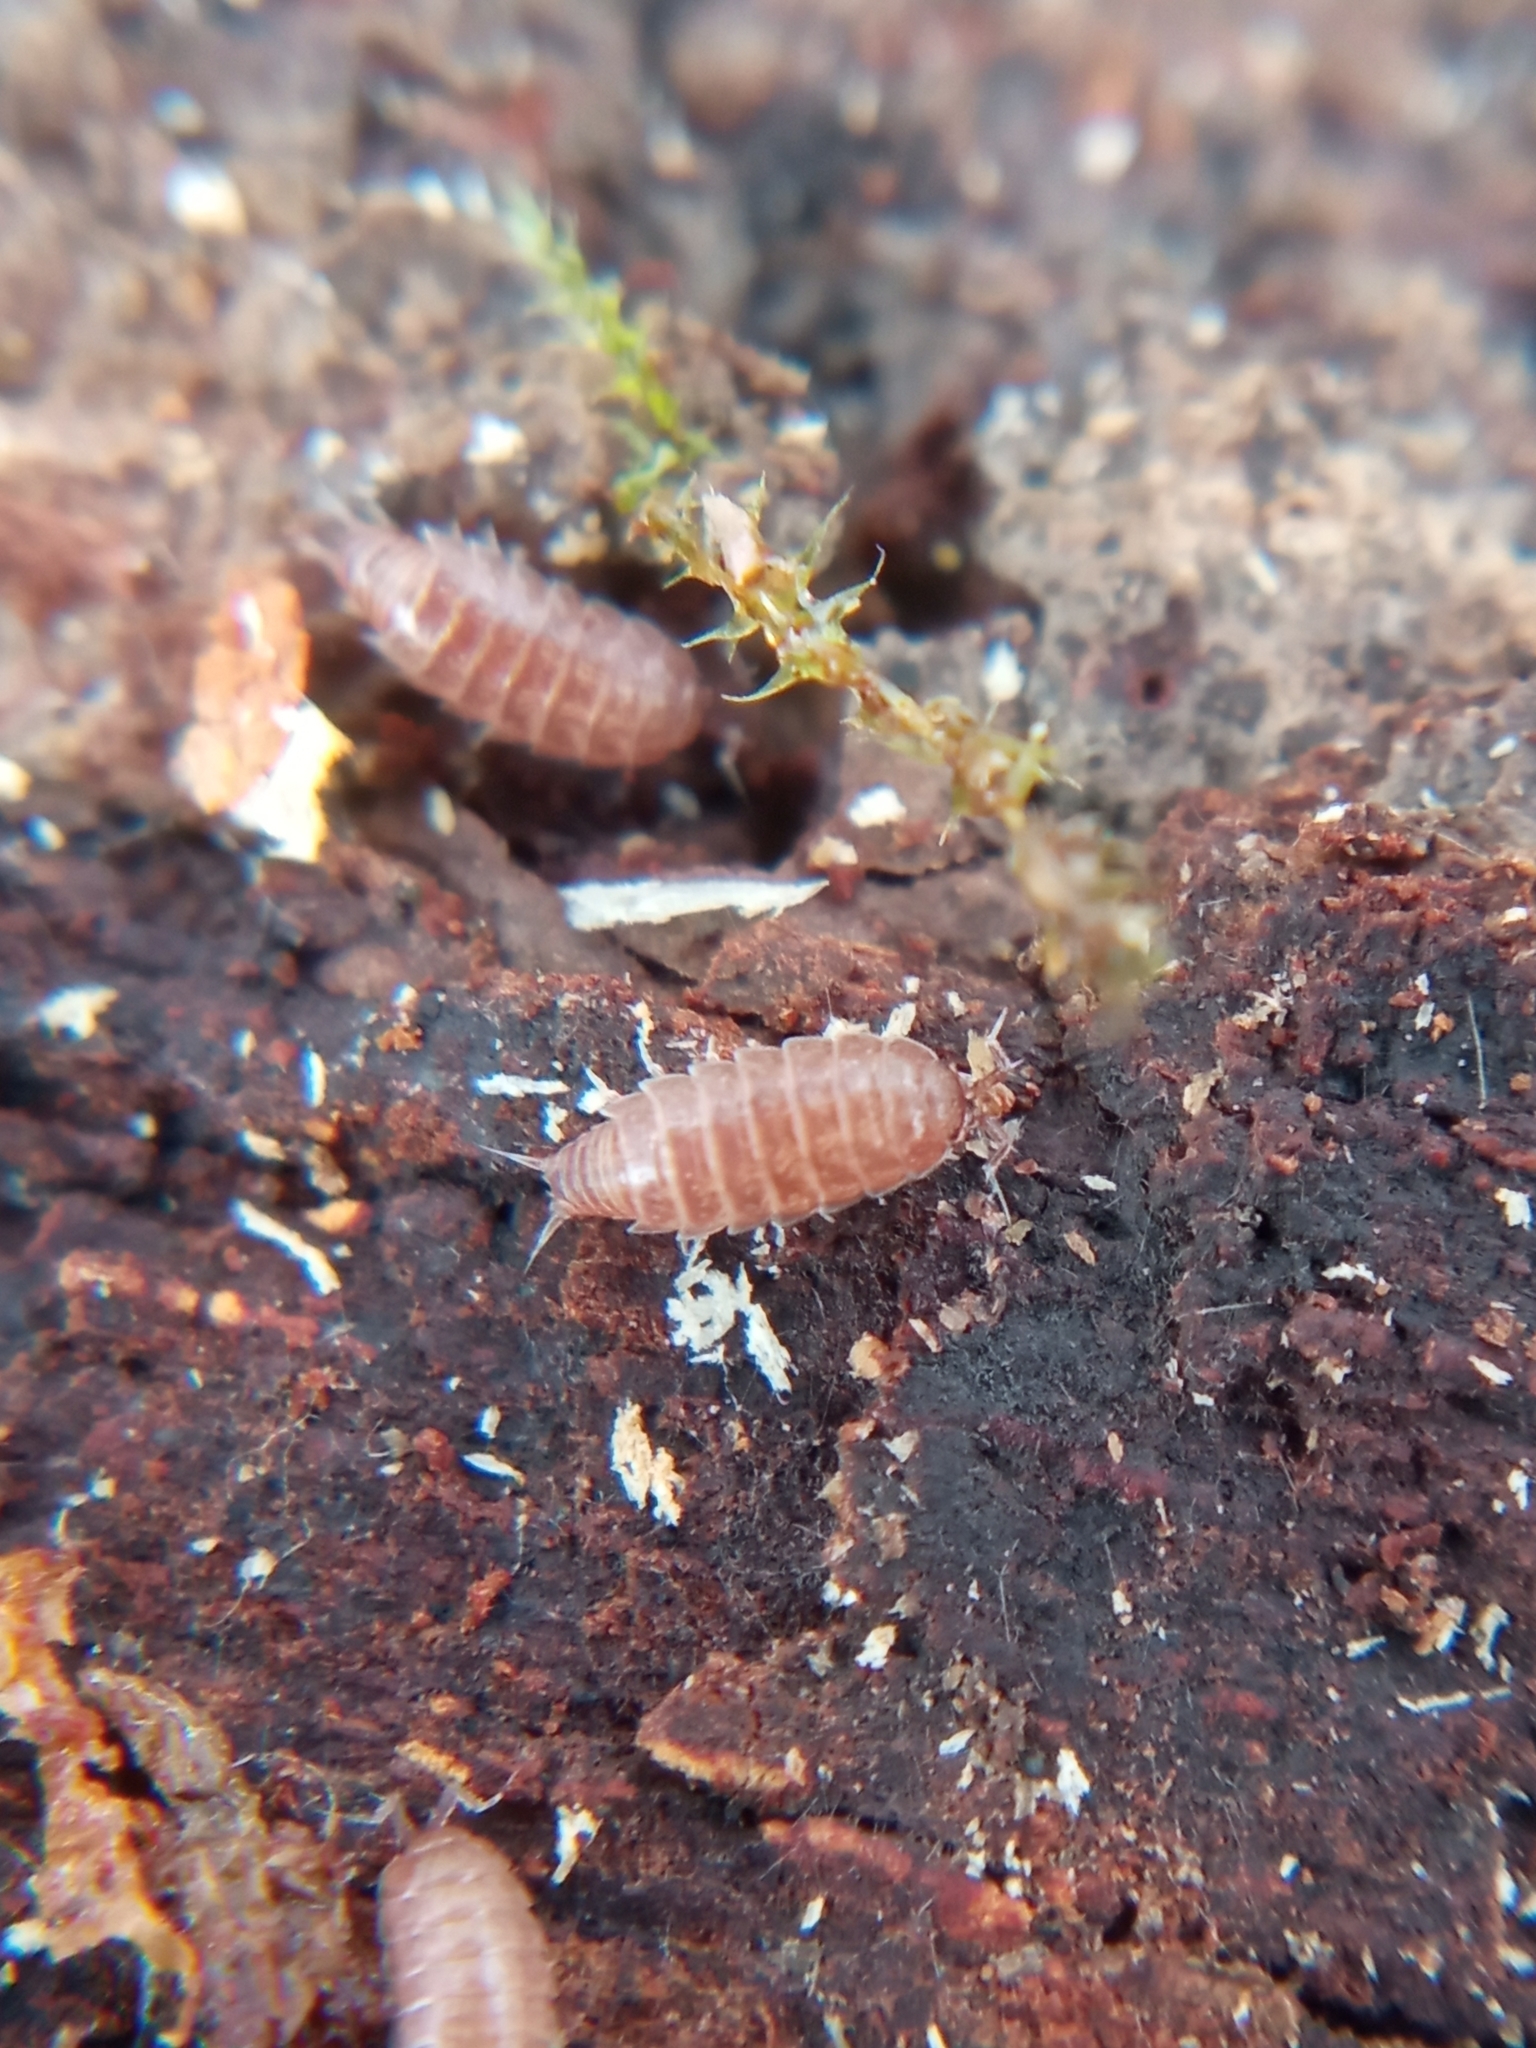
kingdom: Animalia
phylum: Arthropoda
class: Malacostraca
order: Isopoda
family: Trichoniscidae
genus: Trichoniscus
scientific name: Trichoniscus
